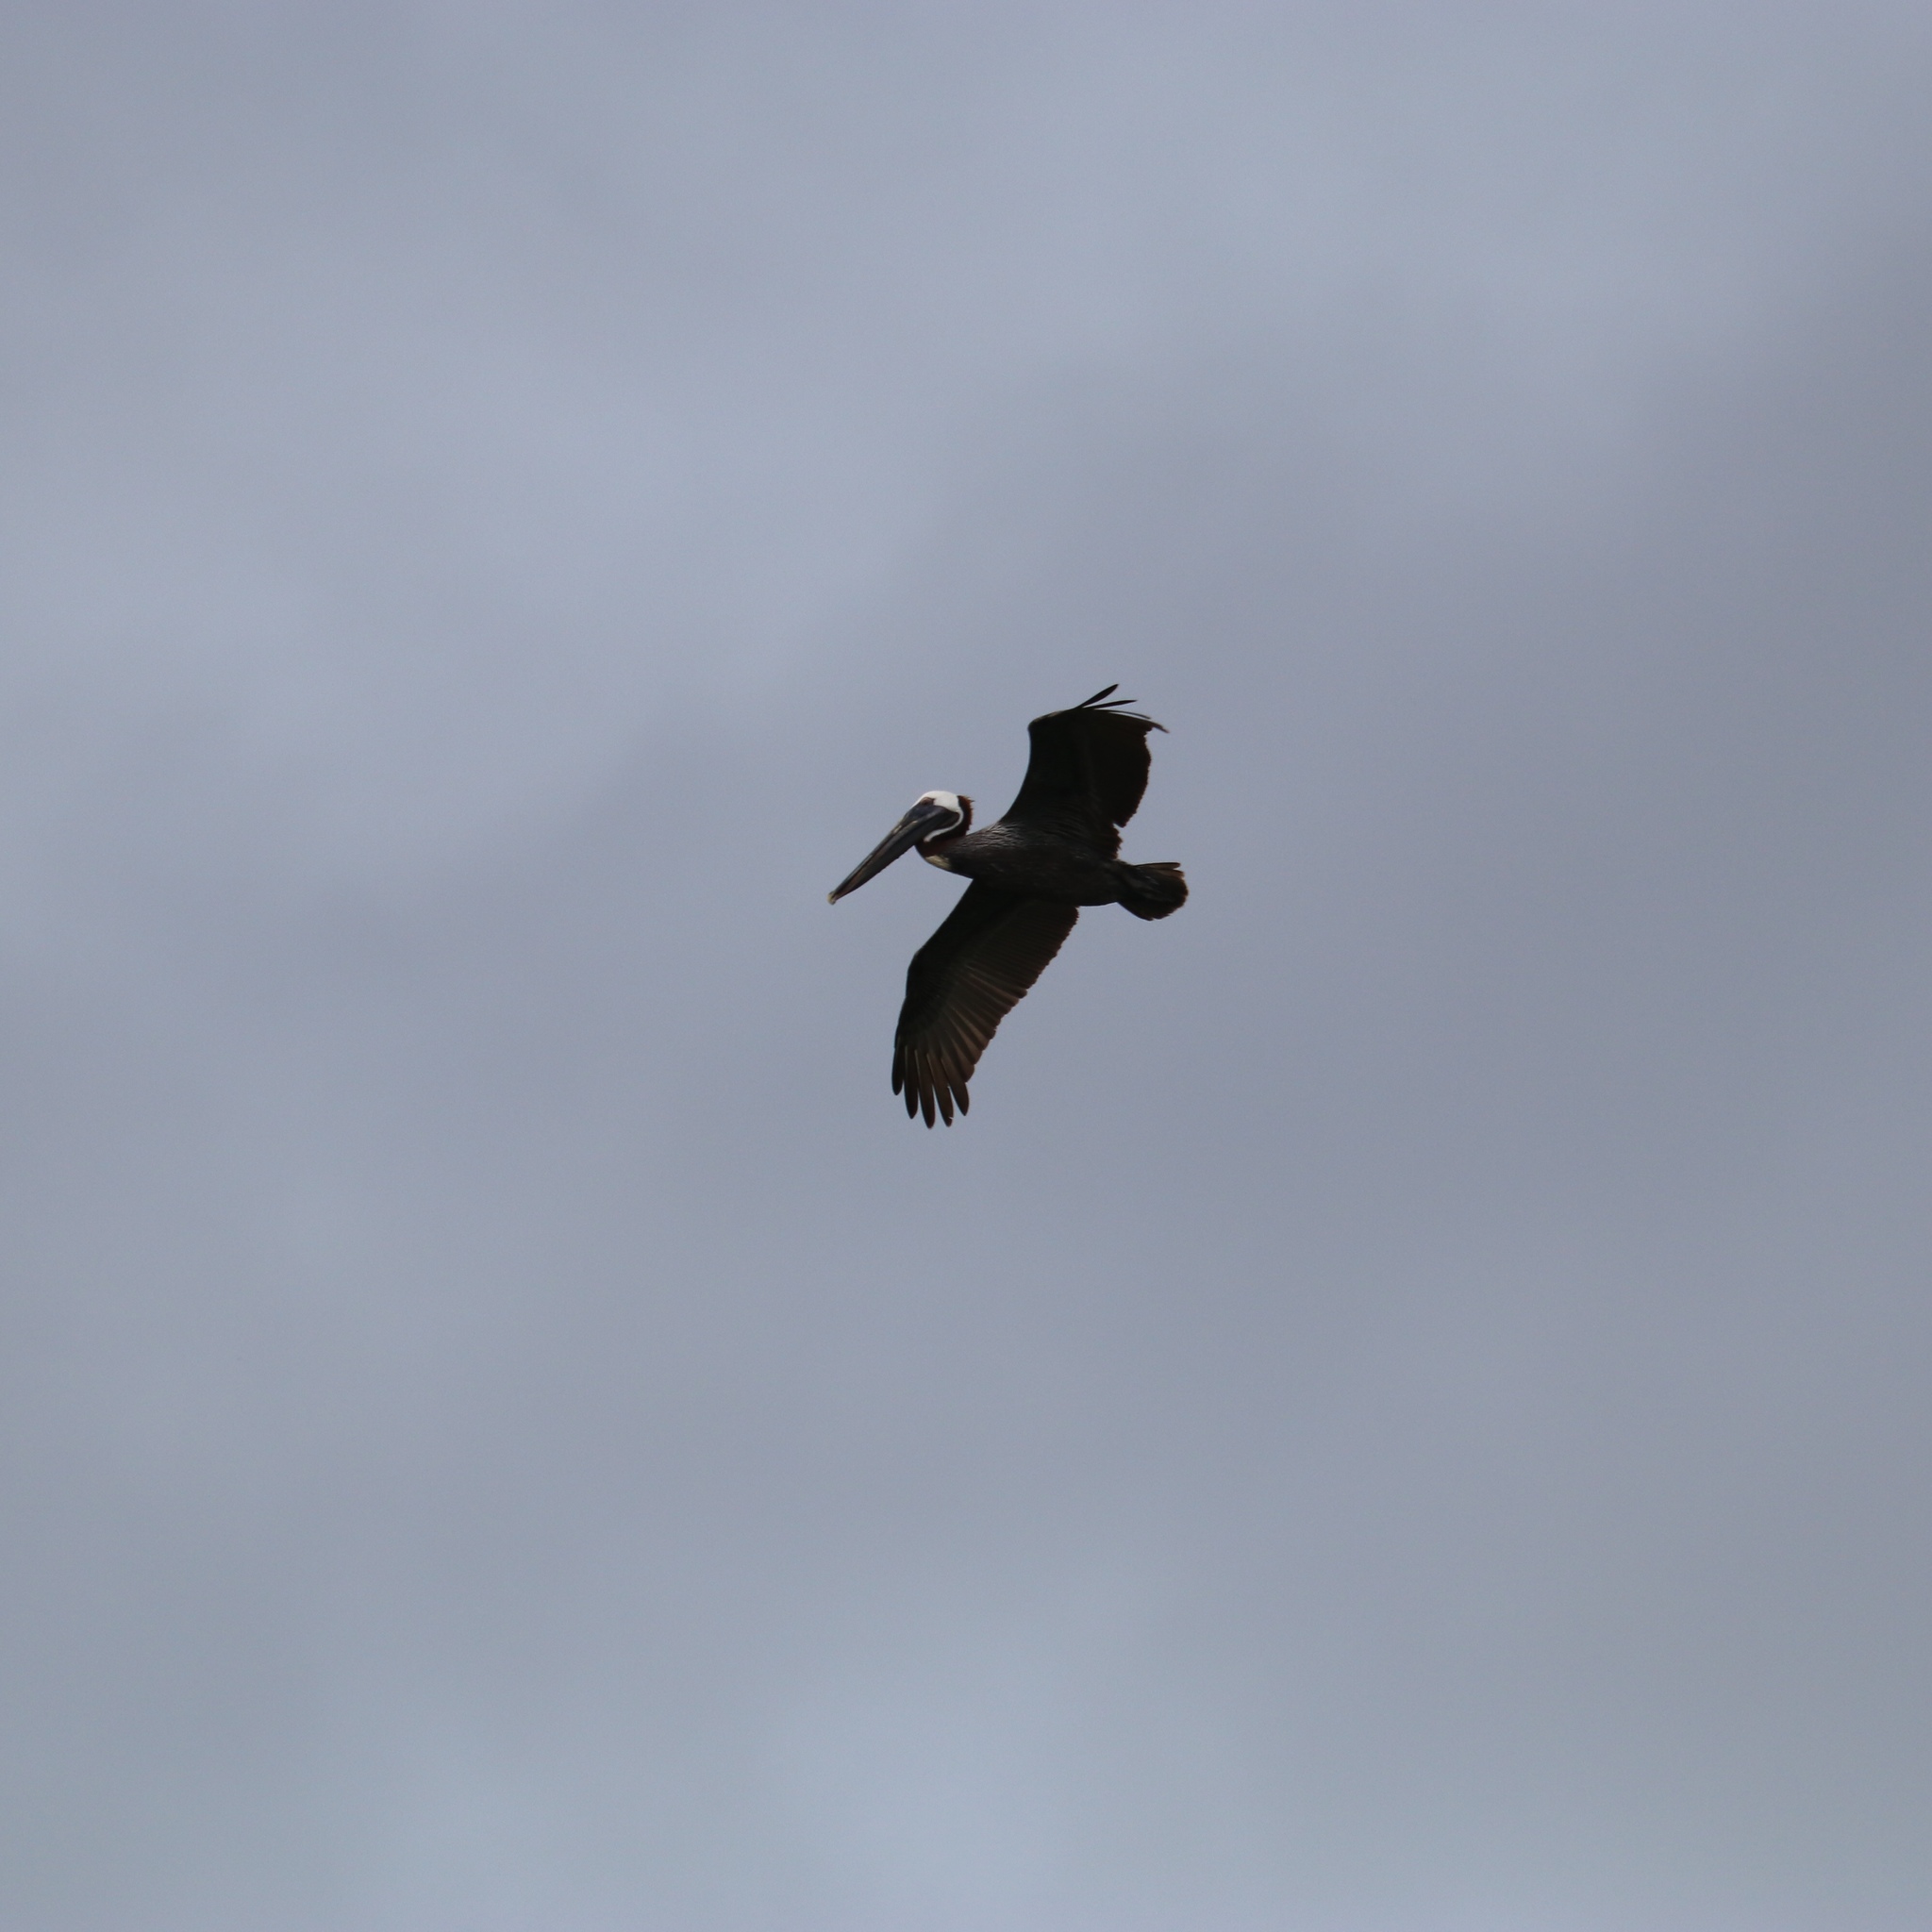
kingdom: Animalia
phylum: Chordata
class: Aves
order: Pelecaniformes
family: Pelecanidae
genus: Pelecanus
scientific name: Pelecanus occidentalis
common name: Brown pelican
